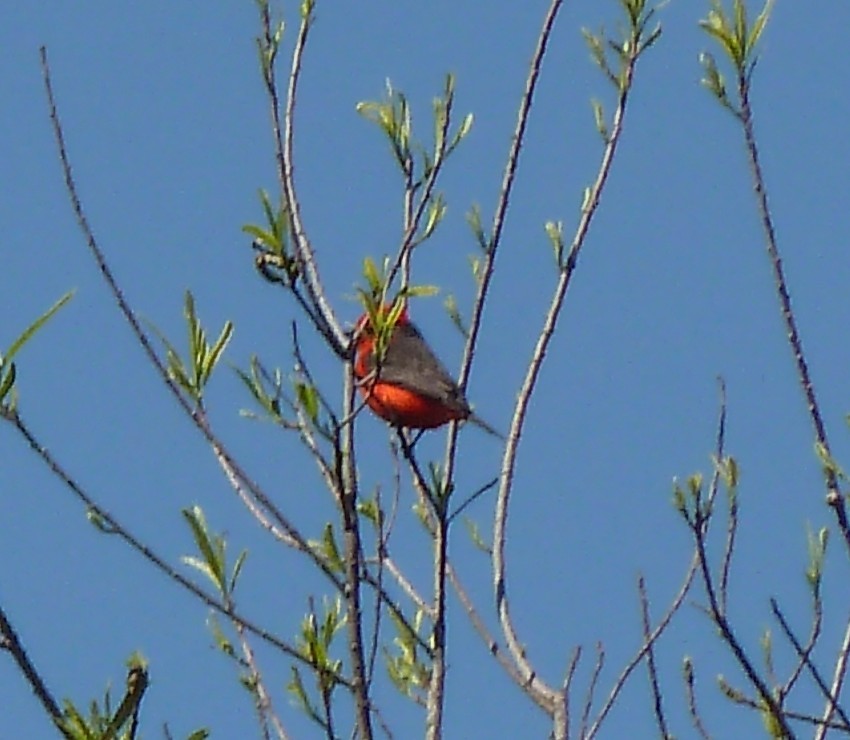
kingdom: Animalia
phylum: Chordata
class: Aves
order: Passeriformes
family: Tyrannidae
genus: Pyrocephalus
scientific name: Pyrocephalus rubinus
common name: Vermilion flycatcher
